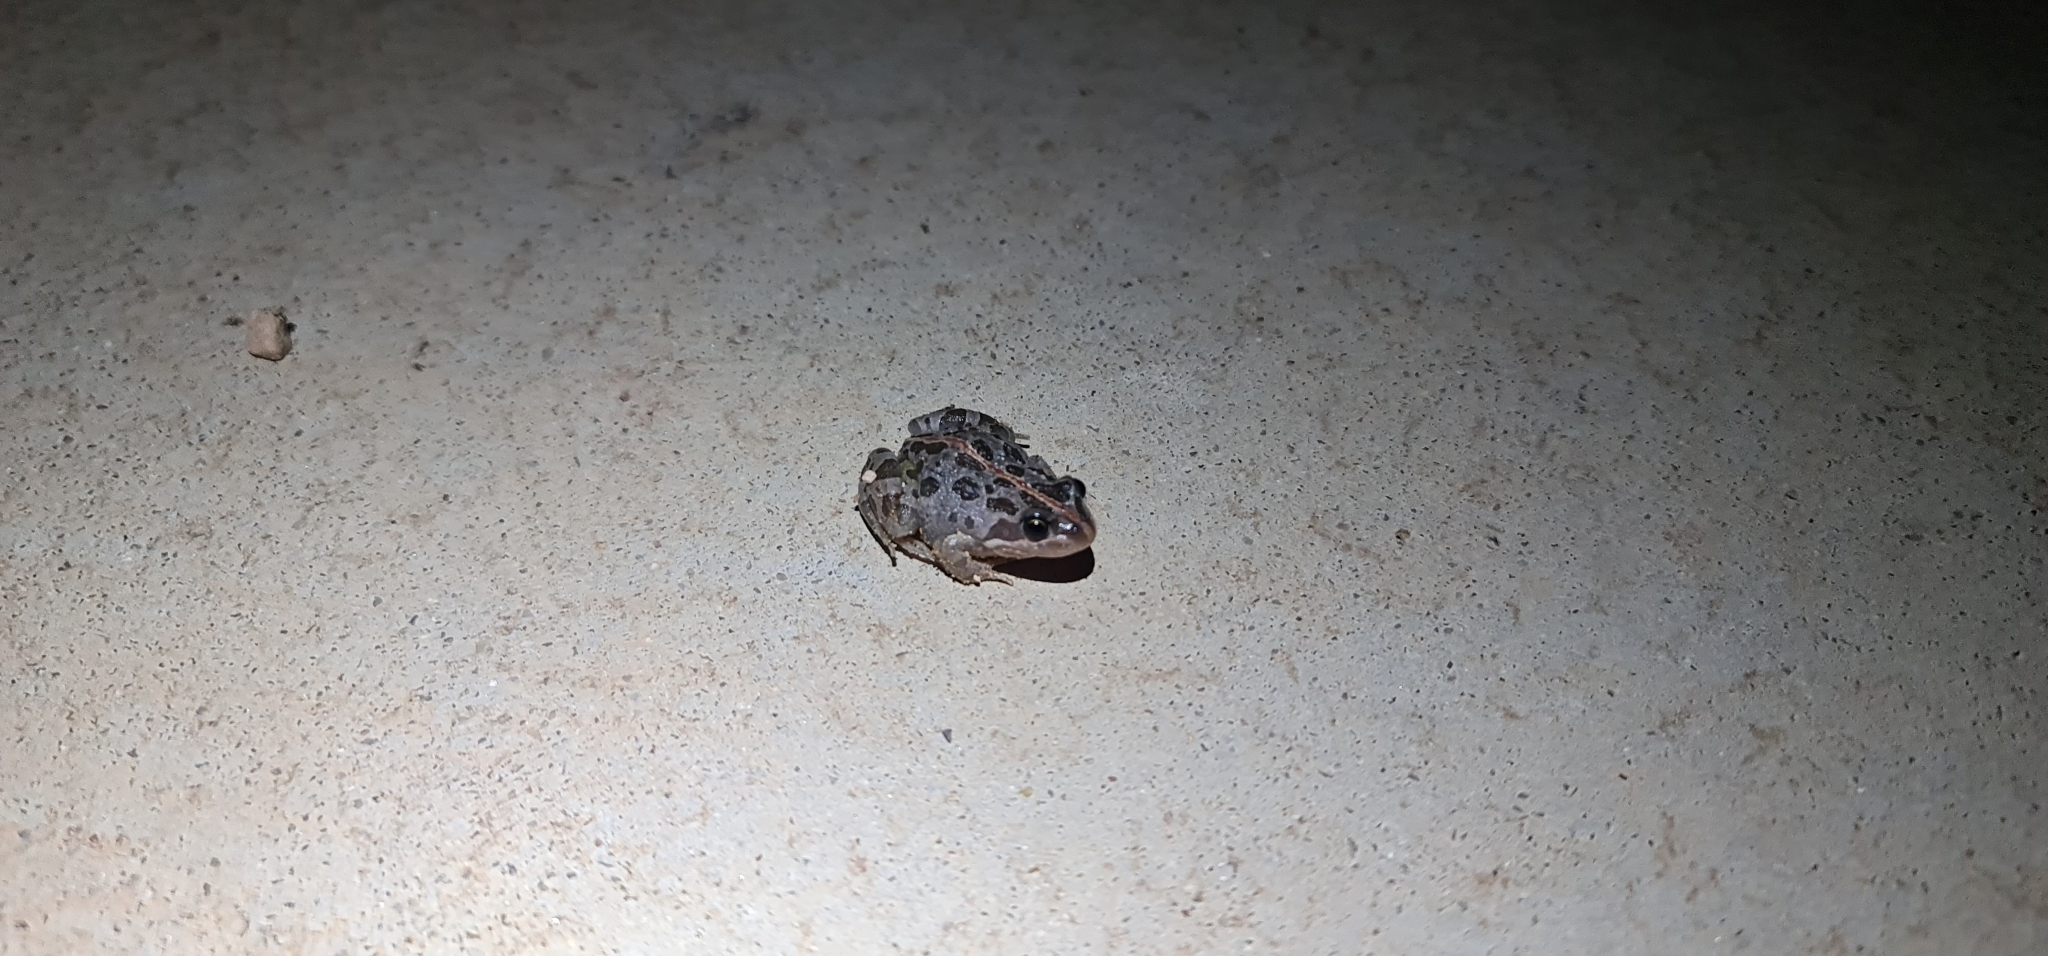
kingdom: Animalia
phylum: Chordata
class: Amphibia
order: Anura
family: Limnodynastidae
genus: Limnodynastes
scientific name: Limnodynastes tasmaniensis
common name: Spotted marsh frog
